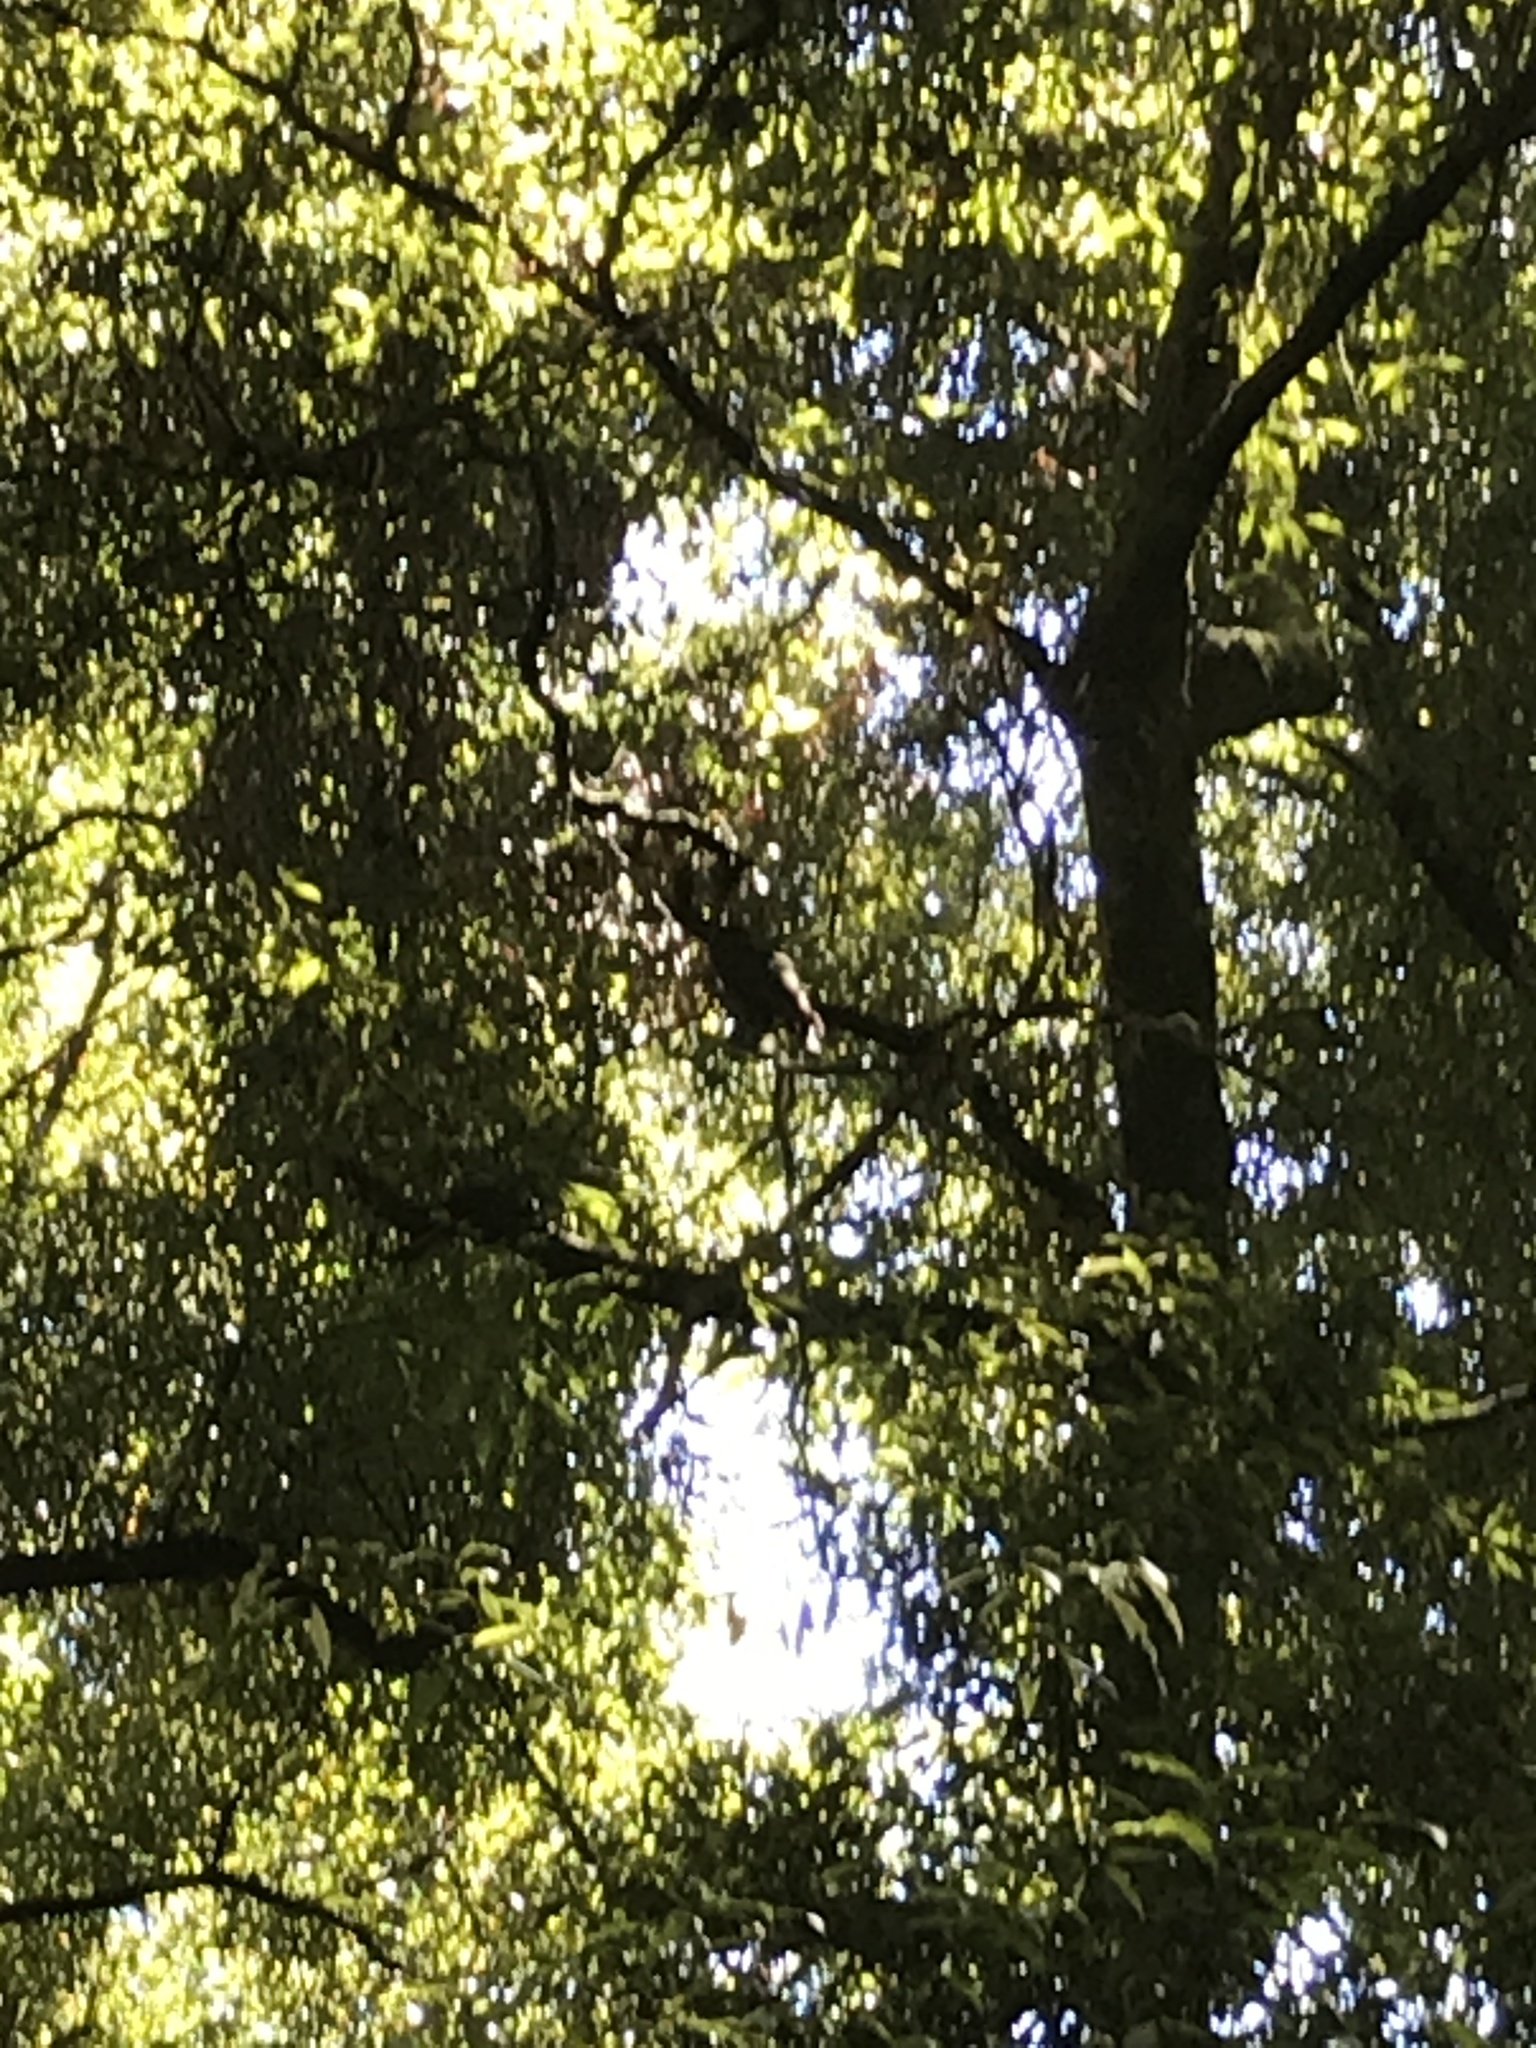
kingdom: Animalia
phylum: Chordata
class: Aves
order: Psittaciformes
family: Psittacidae
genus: Nestor
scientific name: Nestor meridionalis
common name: New zealand kaka
